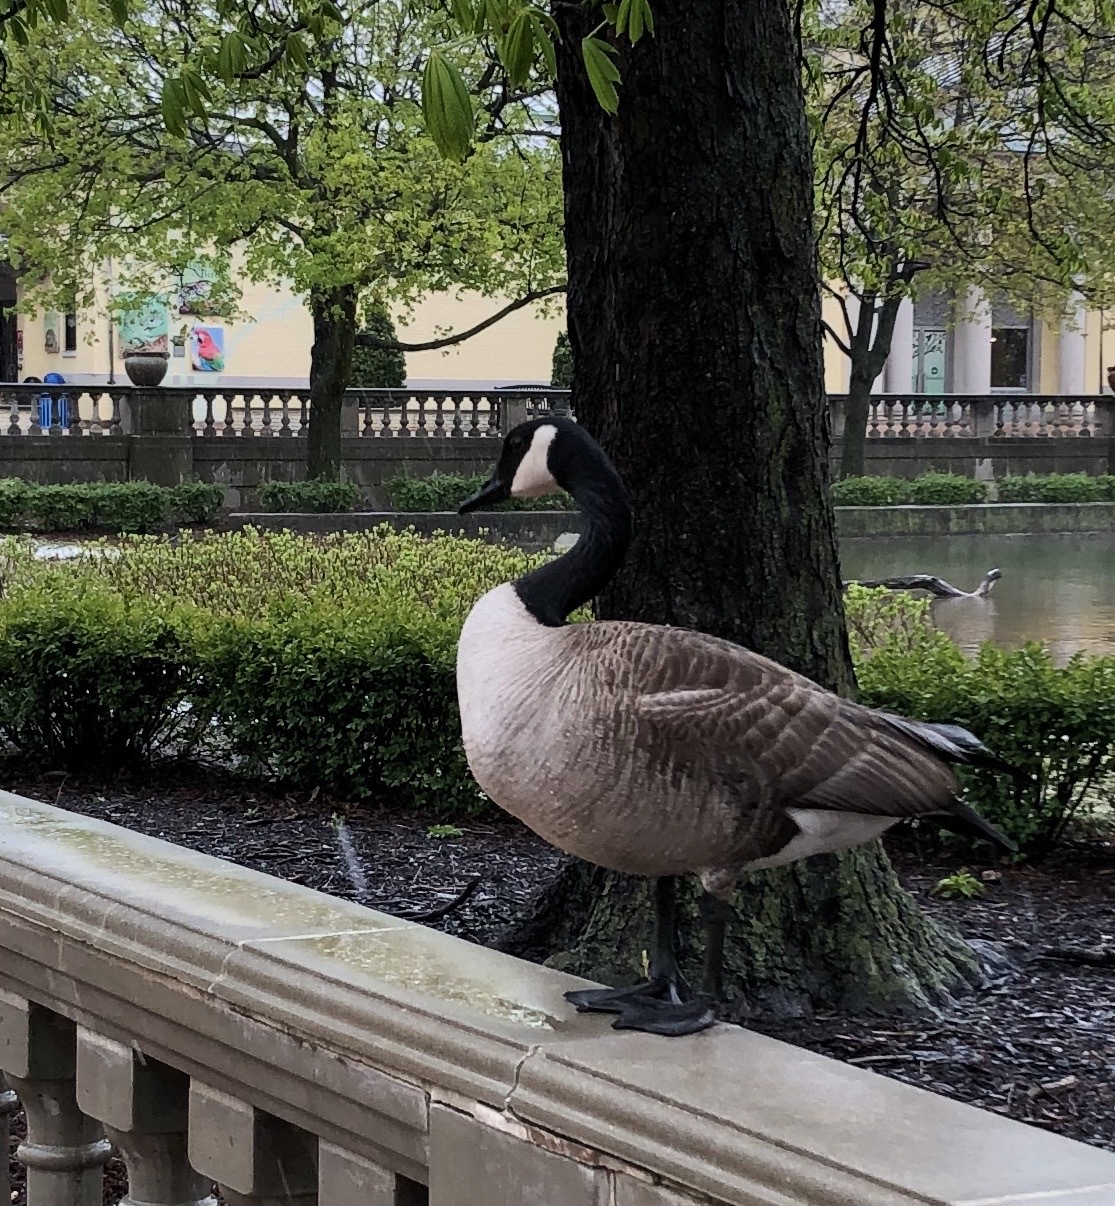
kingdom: Animalia
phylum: Chordata
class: Aves
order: Anseriformes
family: Anatidae
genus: Branta
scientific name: Branta canadensis
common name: Canada goose
